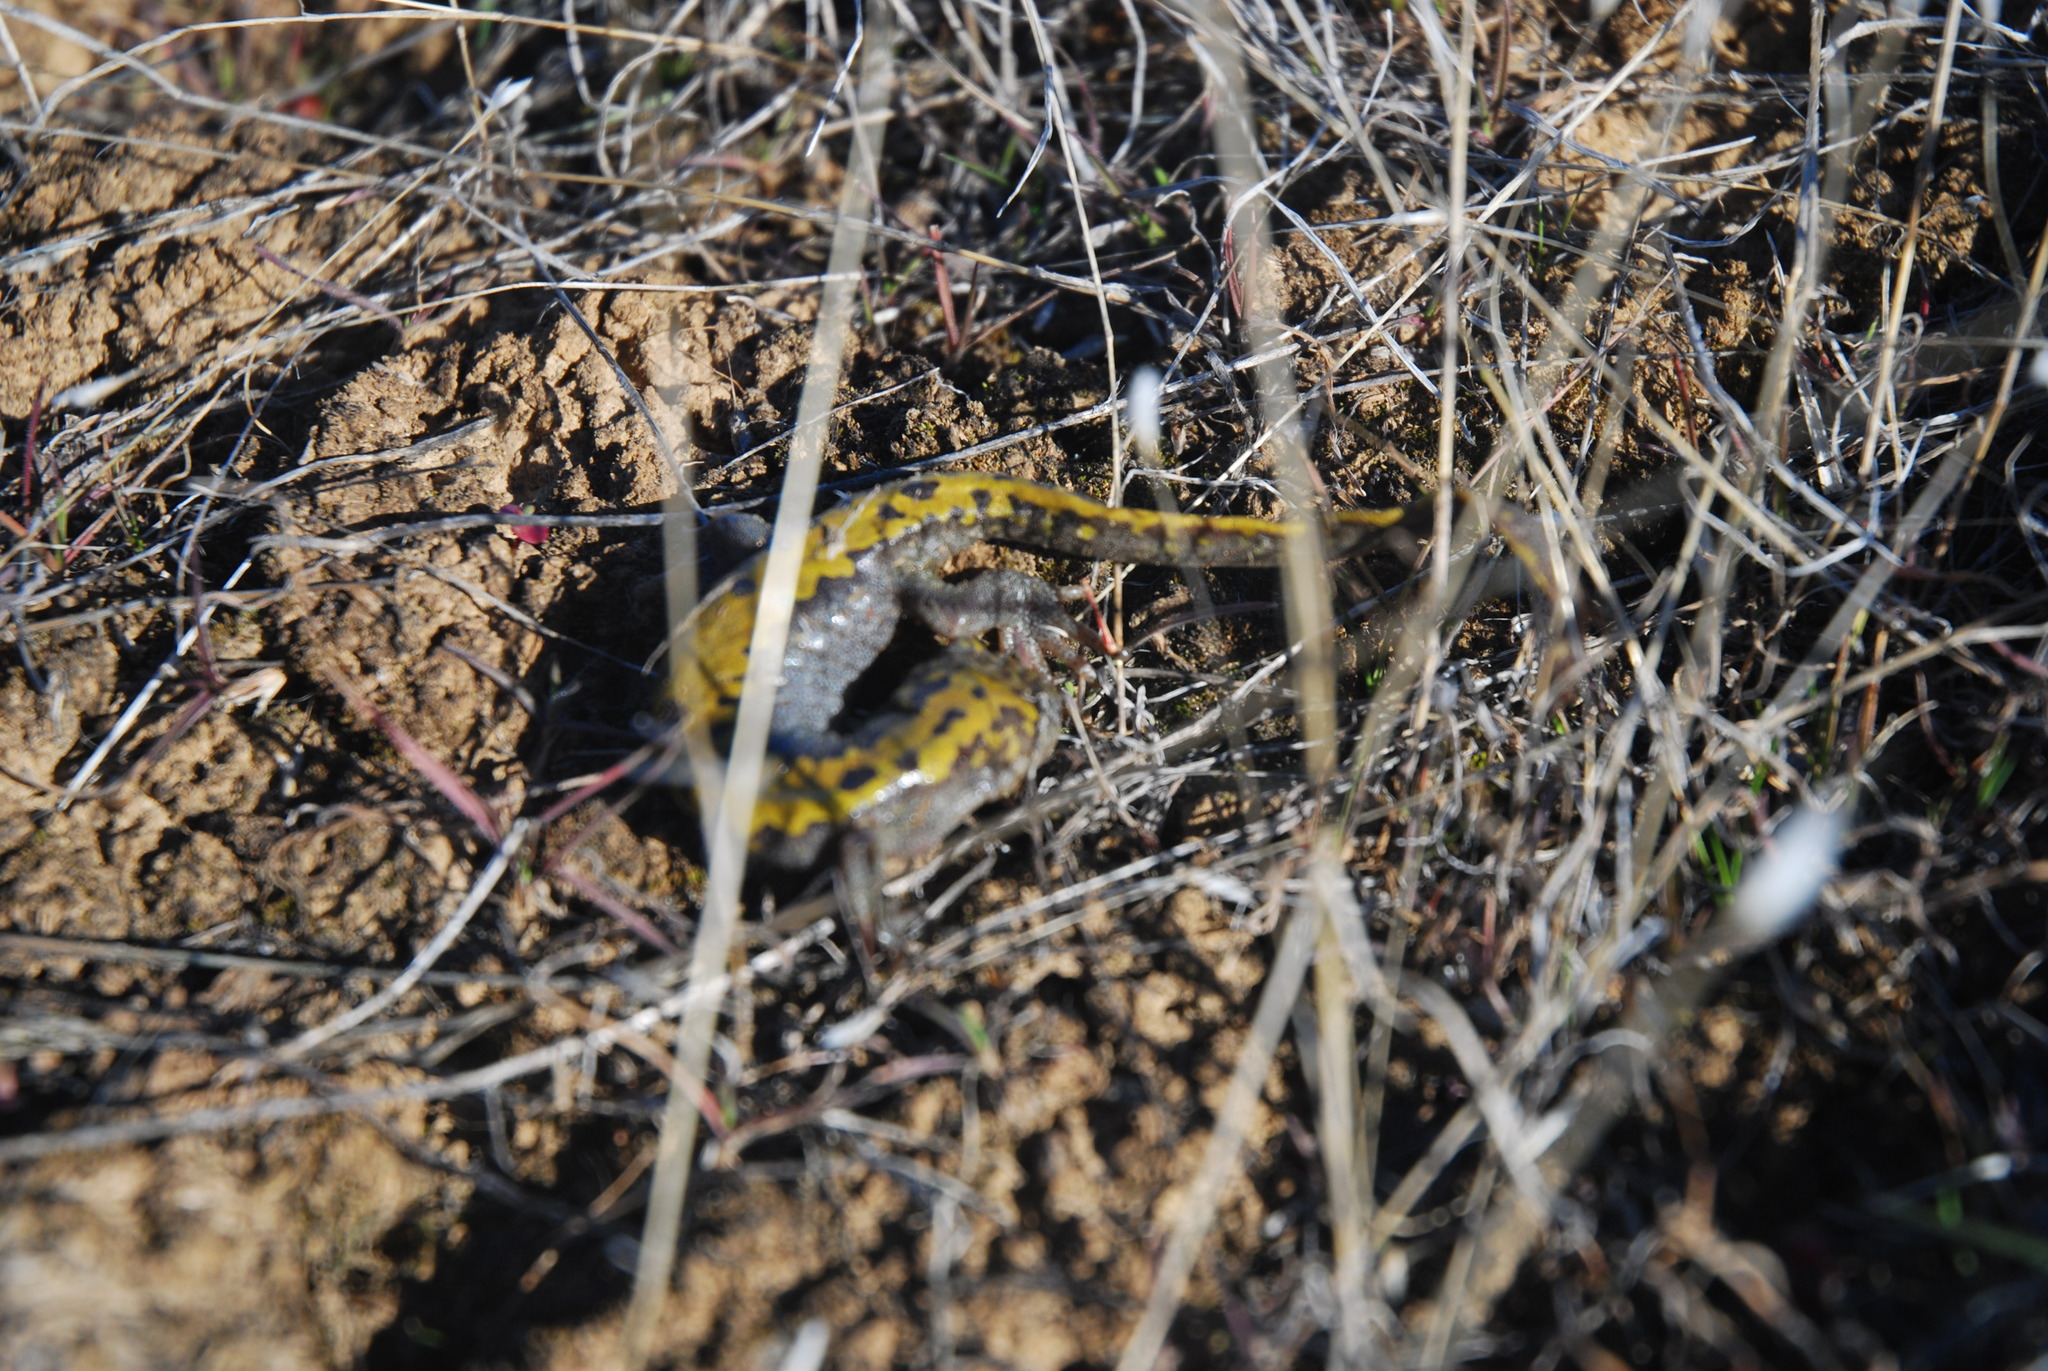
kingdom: Animalia
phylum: Chordata
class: Amphibia
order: Caudata
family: Ambystomatidae
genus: Ambystoma
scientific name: Ambystoma macrodactylum
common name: Long-toed salamander
